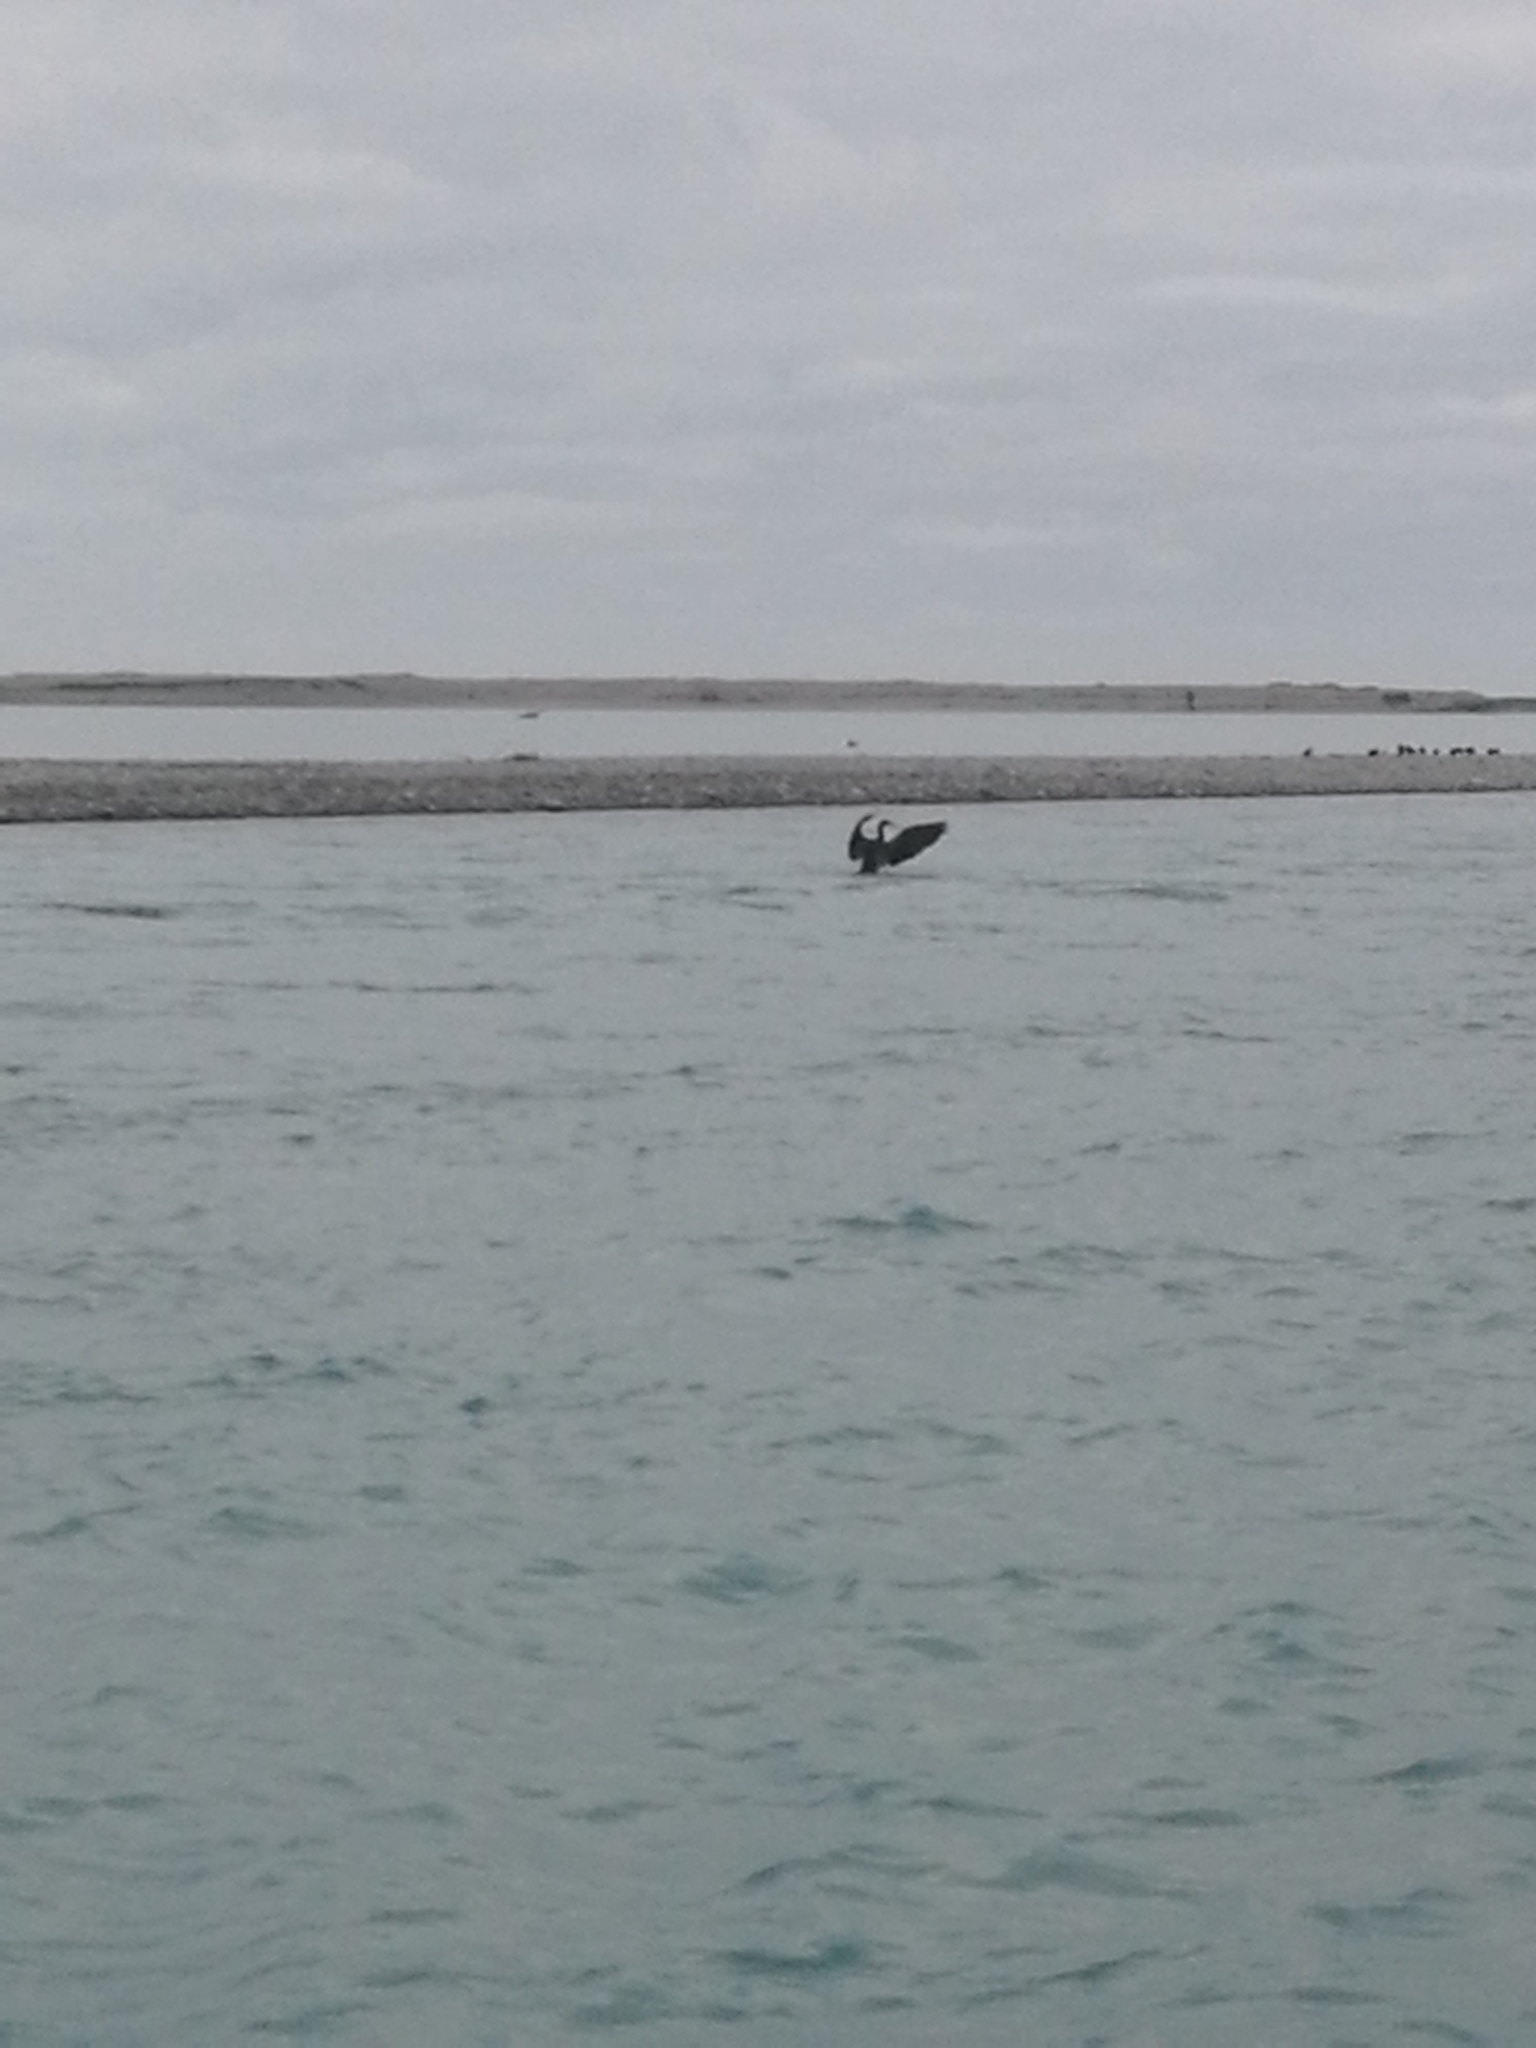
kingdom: Animalia
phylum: Chordata
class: Aves
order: Suliformes
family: Phalacrocoracidae
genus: Phalacrocorax
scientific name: Phalacrocorax varius
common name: Pied cormorant
